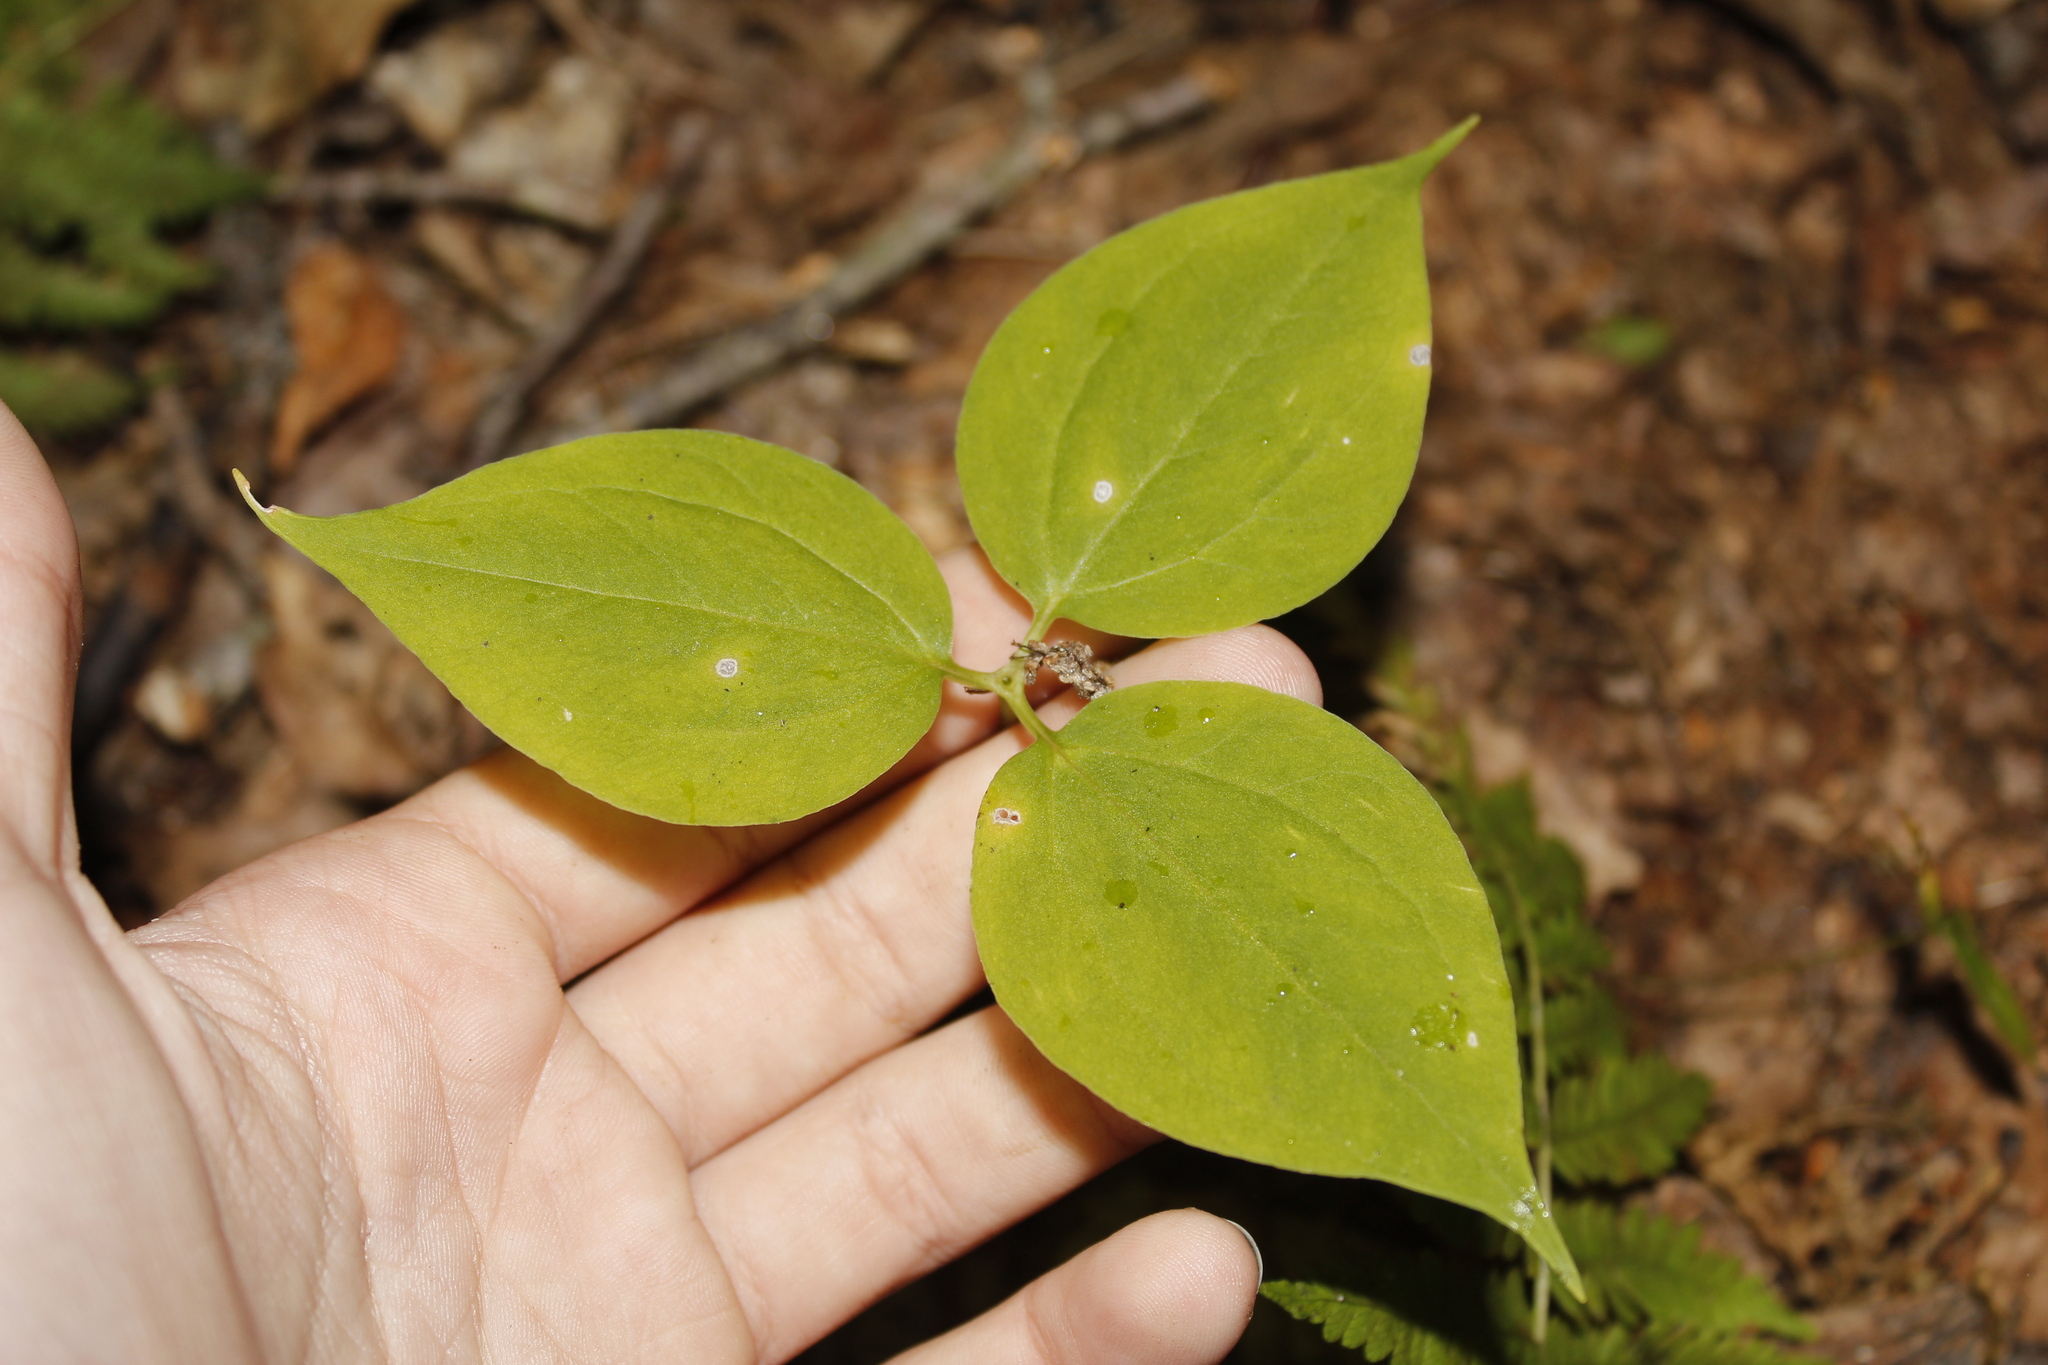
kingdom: Plantae
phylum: Tracheophyta
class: Liliopsida
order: Liliales
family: Melanthiaceae
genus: Trillium
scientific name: Trillium undulatum
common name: Paint trillium
